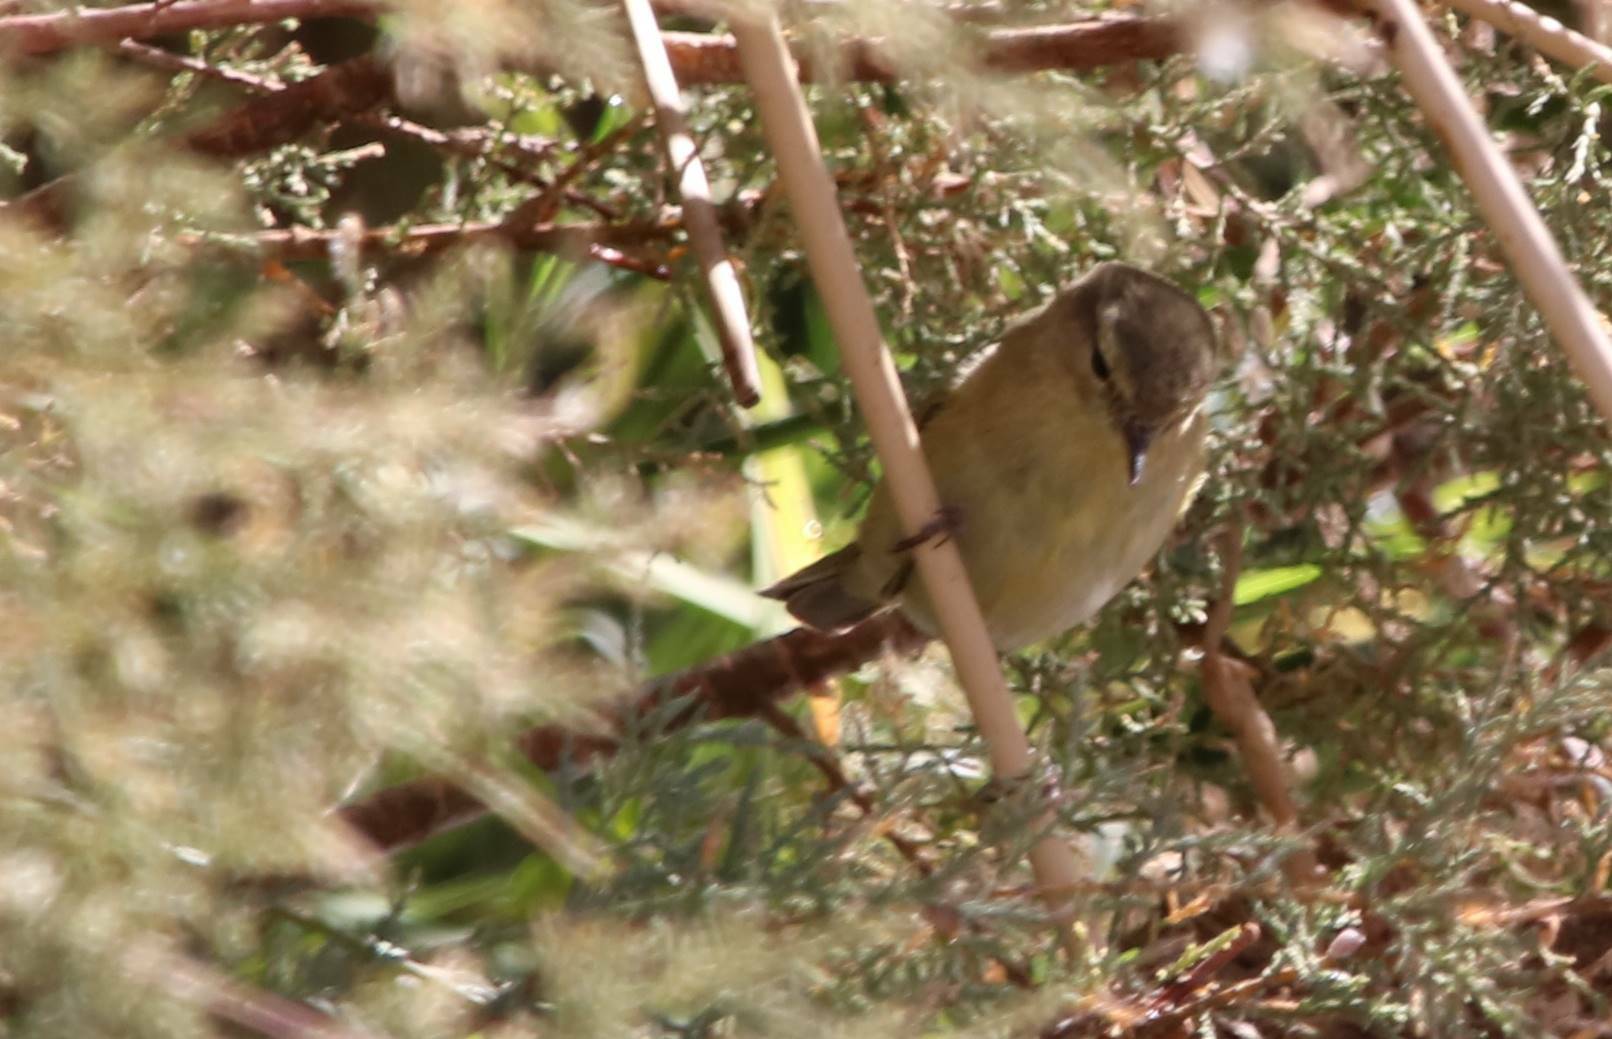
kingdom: Animalia
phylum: Chordata
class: Aves
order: Passeriformes
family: Phylloscopidae
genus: Phylloscopus
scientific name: Phylloscopus collybita
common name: Common chiffchaff
